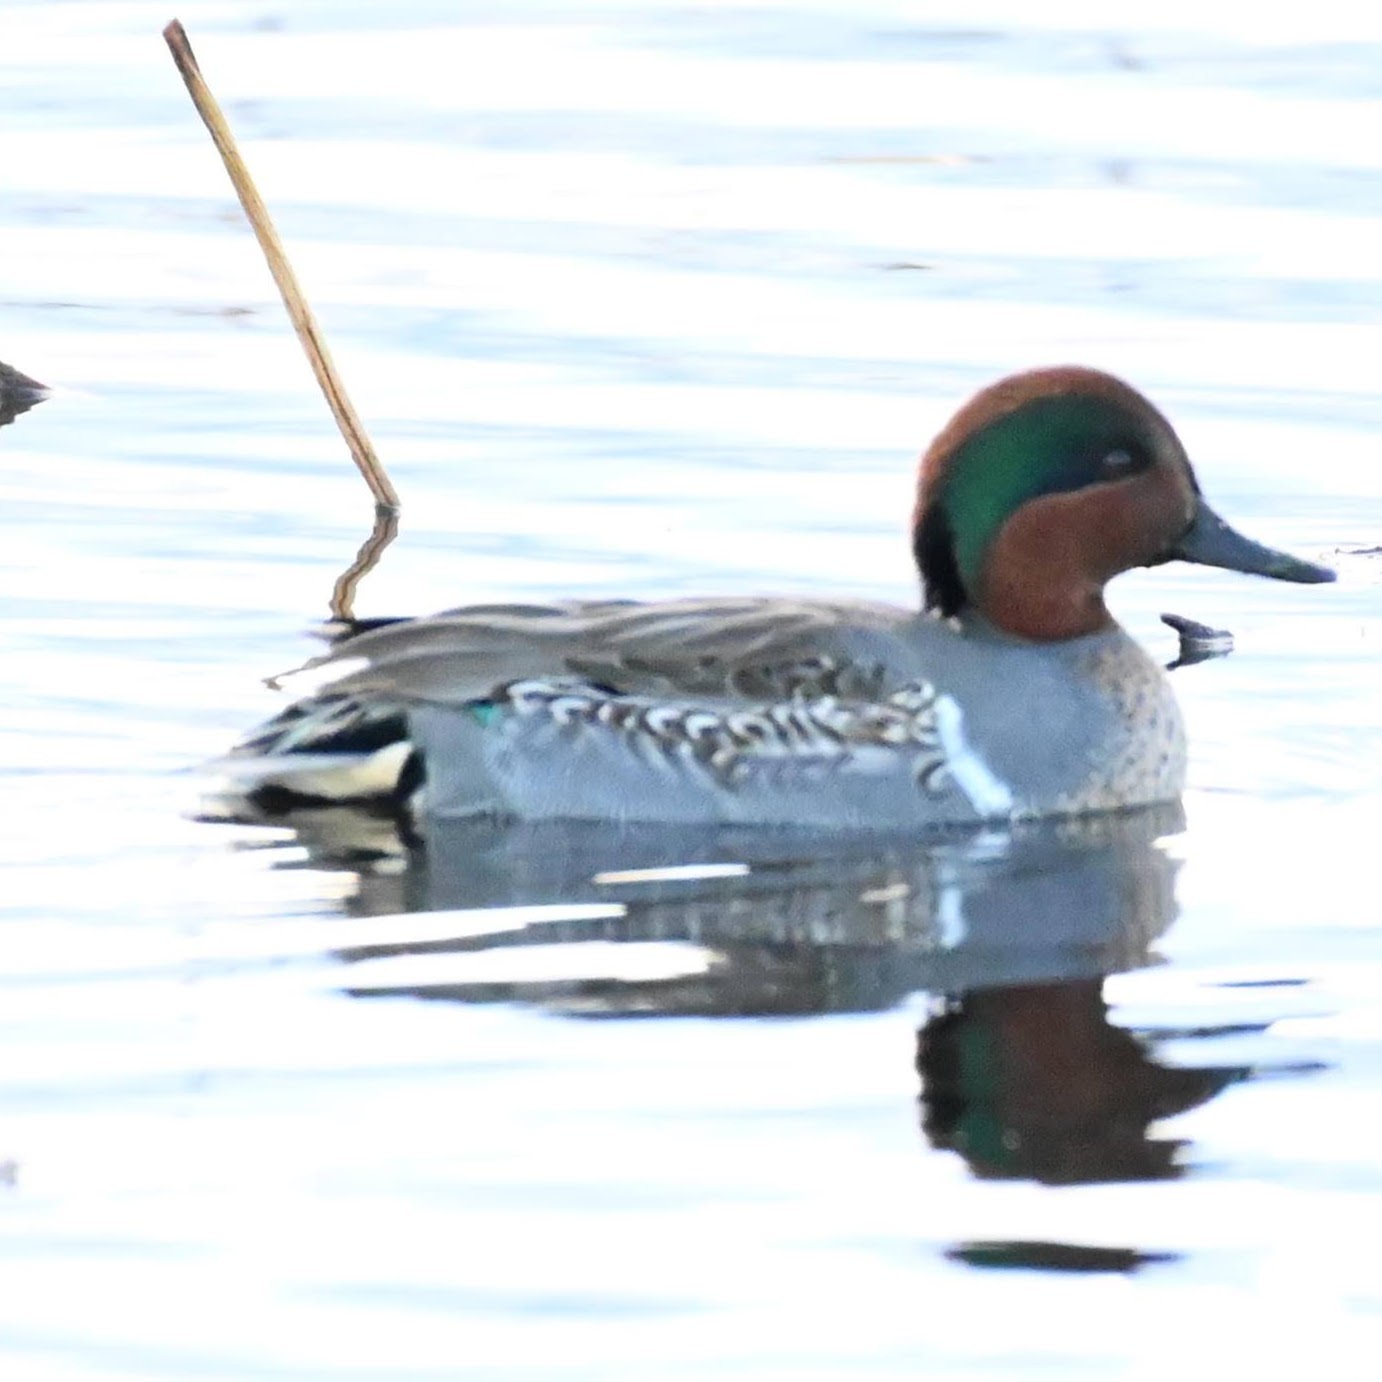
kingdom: Animalia
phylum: Chordata
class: Aves
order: Anseriformes
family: Anatidae
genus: Anas
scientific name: Anas crecca
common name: Eurasian teal
